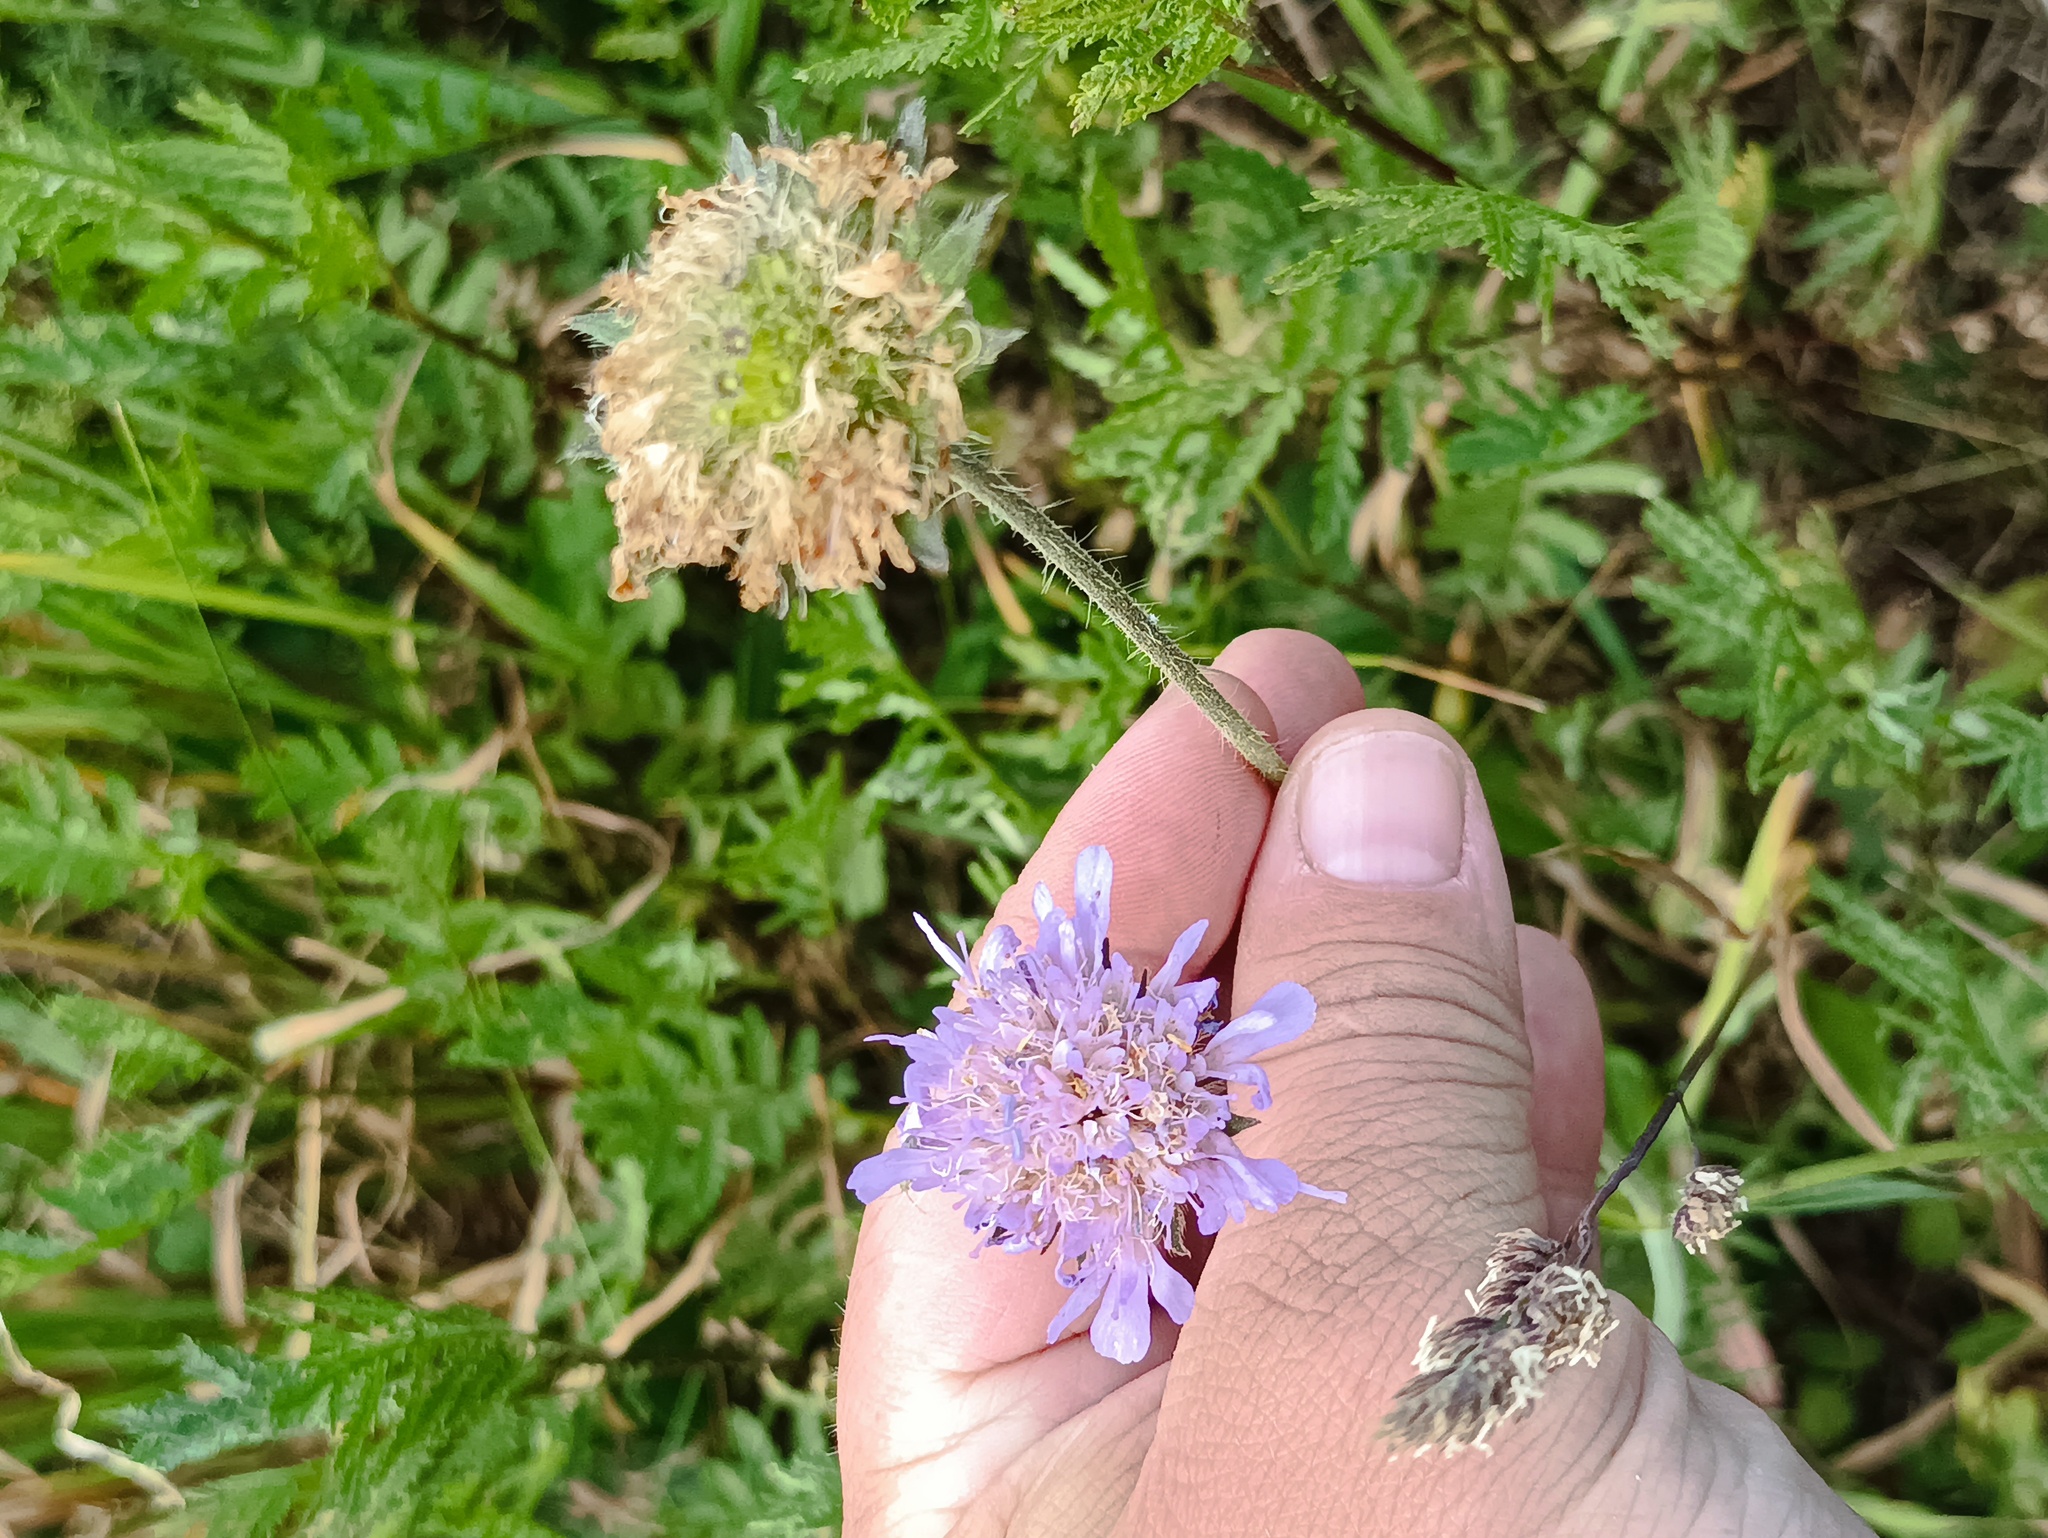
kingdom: Plantae
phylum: Tracheophyta
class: Magnoliopsida
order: Dipsacales
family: Caprifoliaceae
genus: Knautia
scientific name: Knautia arvensis
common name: Field scabiosa
